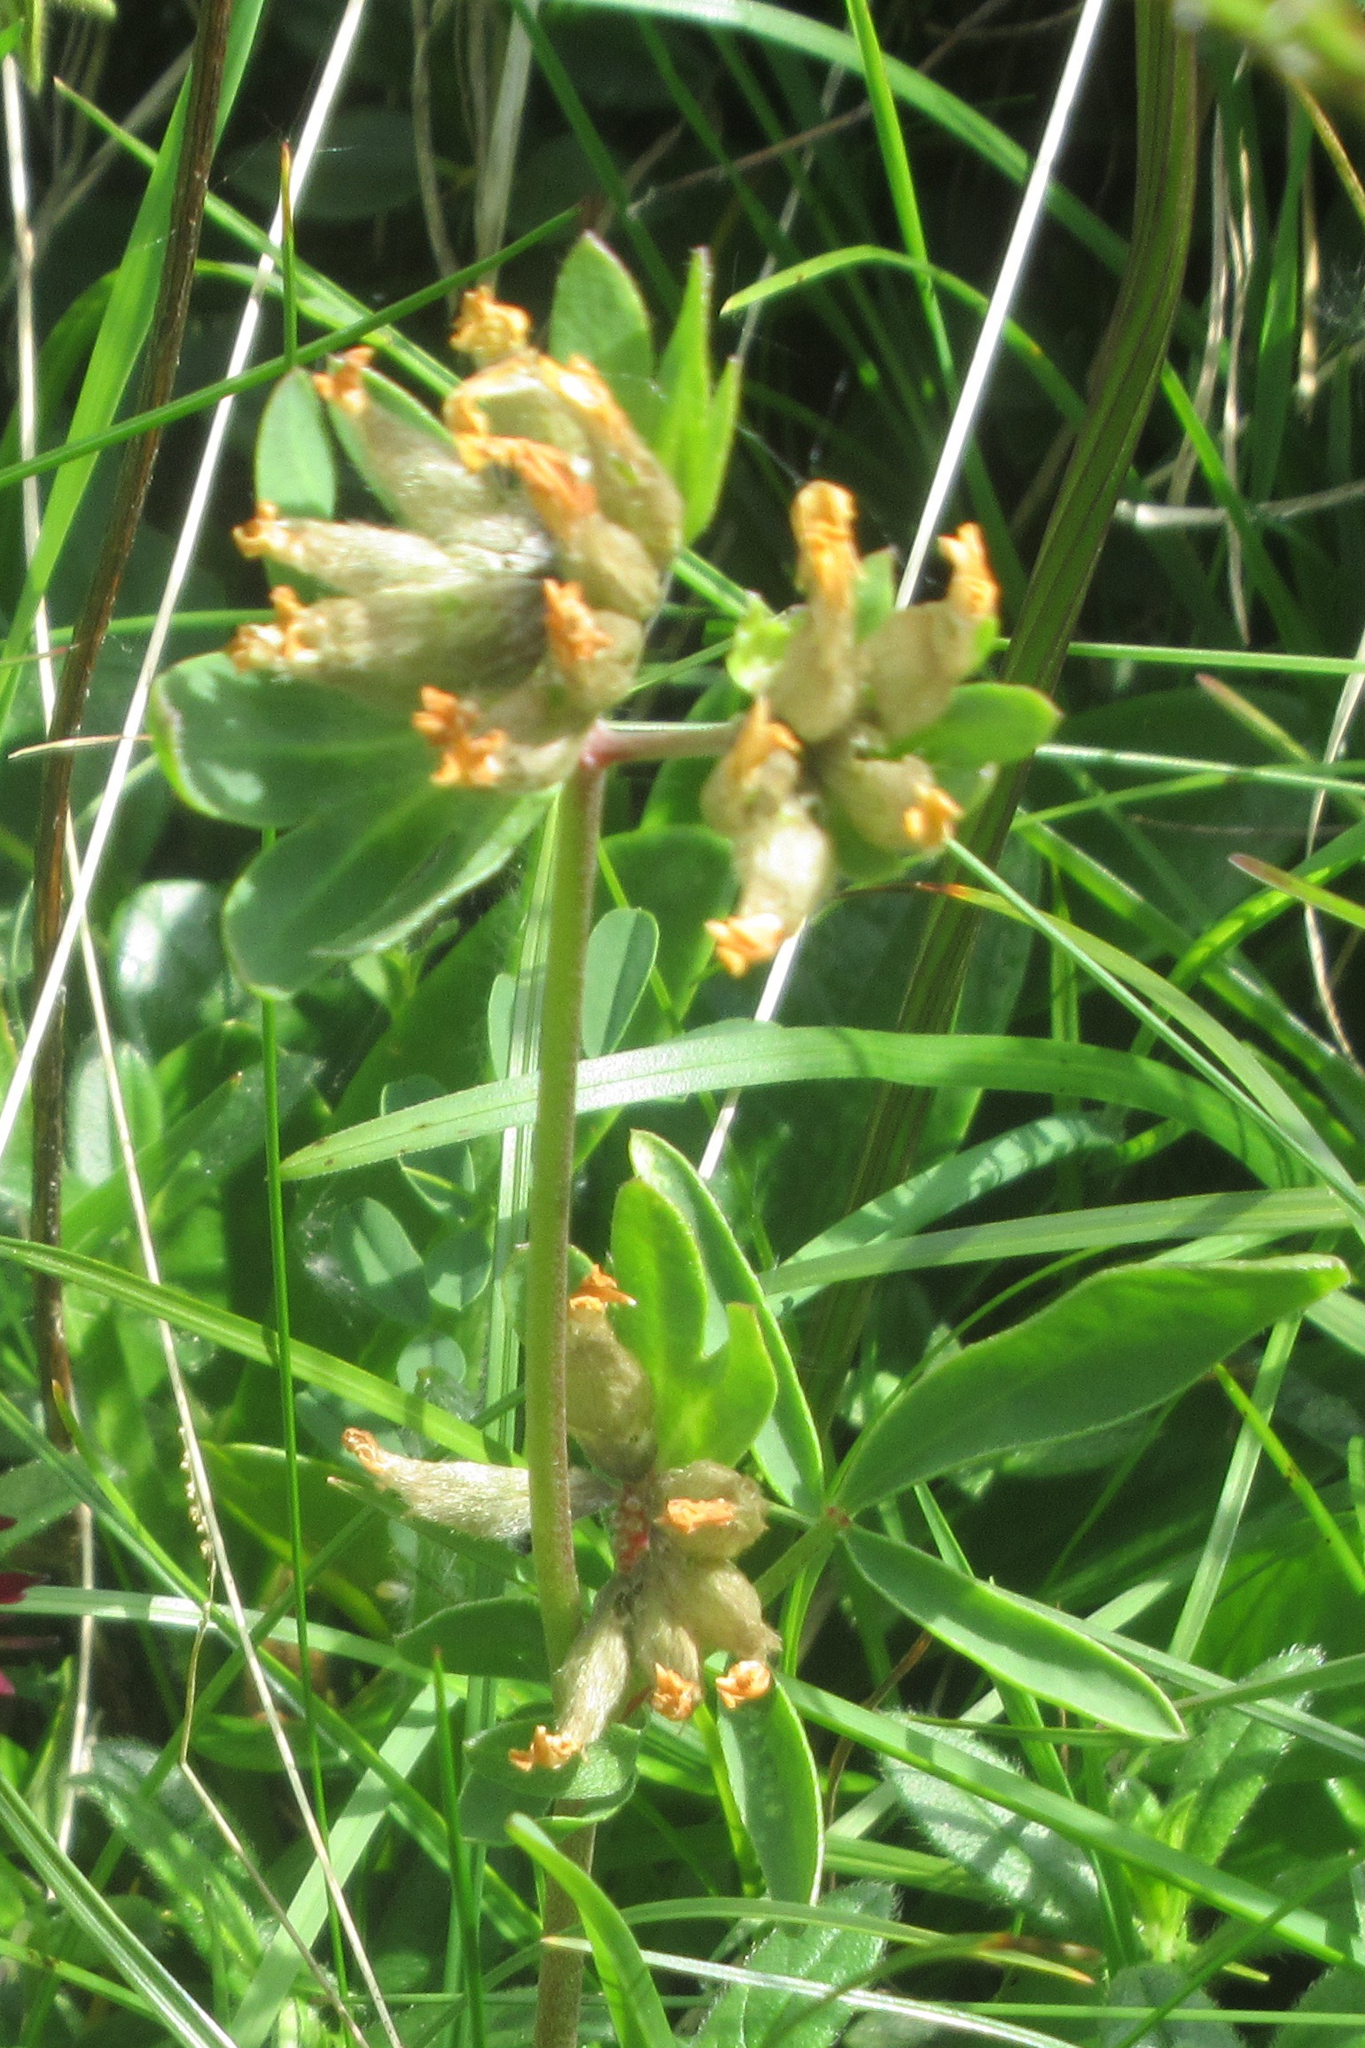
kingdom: Plantae
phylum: Tracheophyta
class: Magnoliopsida
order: Fabales
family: Fabaceae
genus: Anthyllis
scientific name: Anthyllis vulneraria
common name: Kidney vetch
